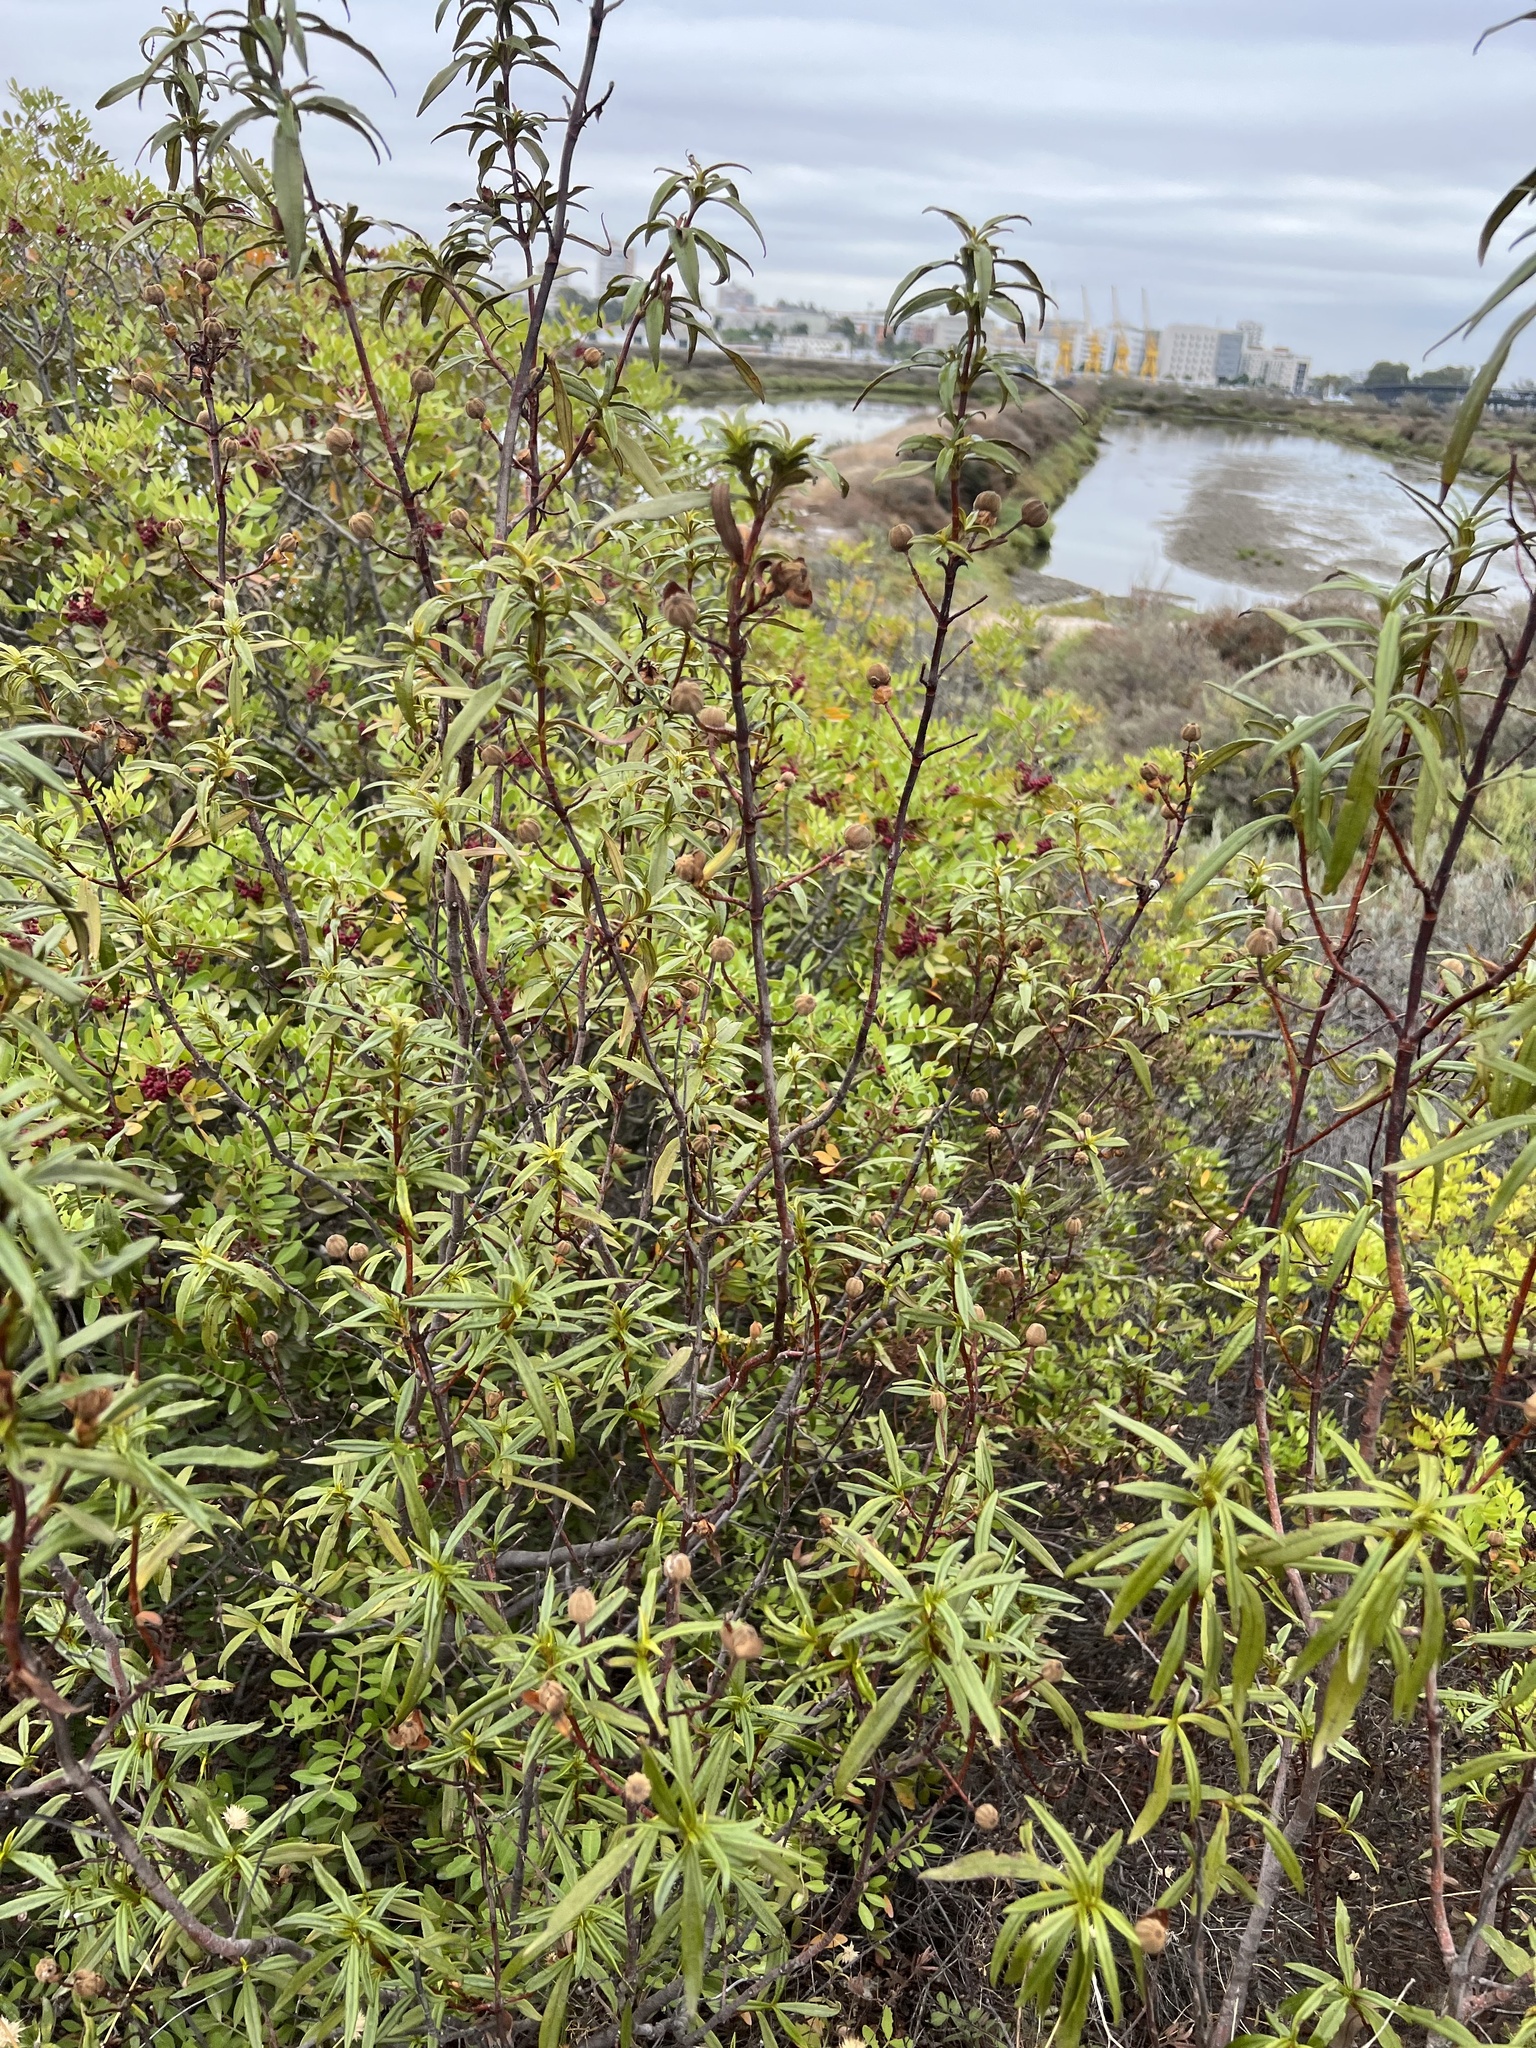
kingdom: Plantae
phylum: Tracheophyta
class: Magnoliopsida
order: Malvales
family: Cistaceae
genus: Cistus
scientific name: Cistus ladanifer
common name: Common gum cistus
